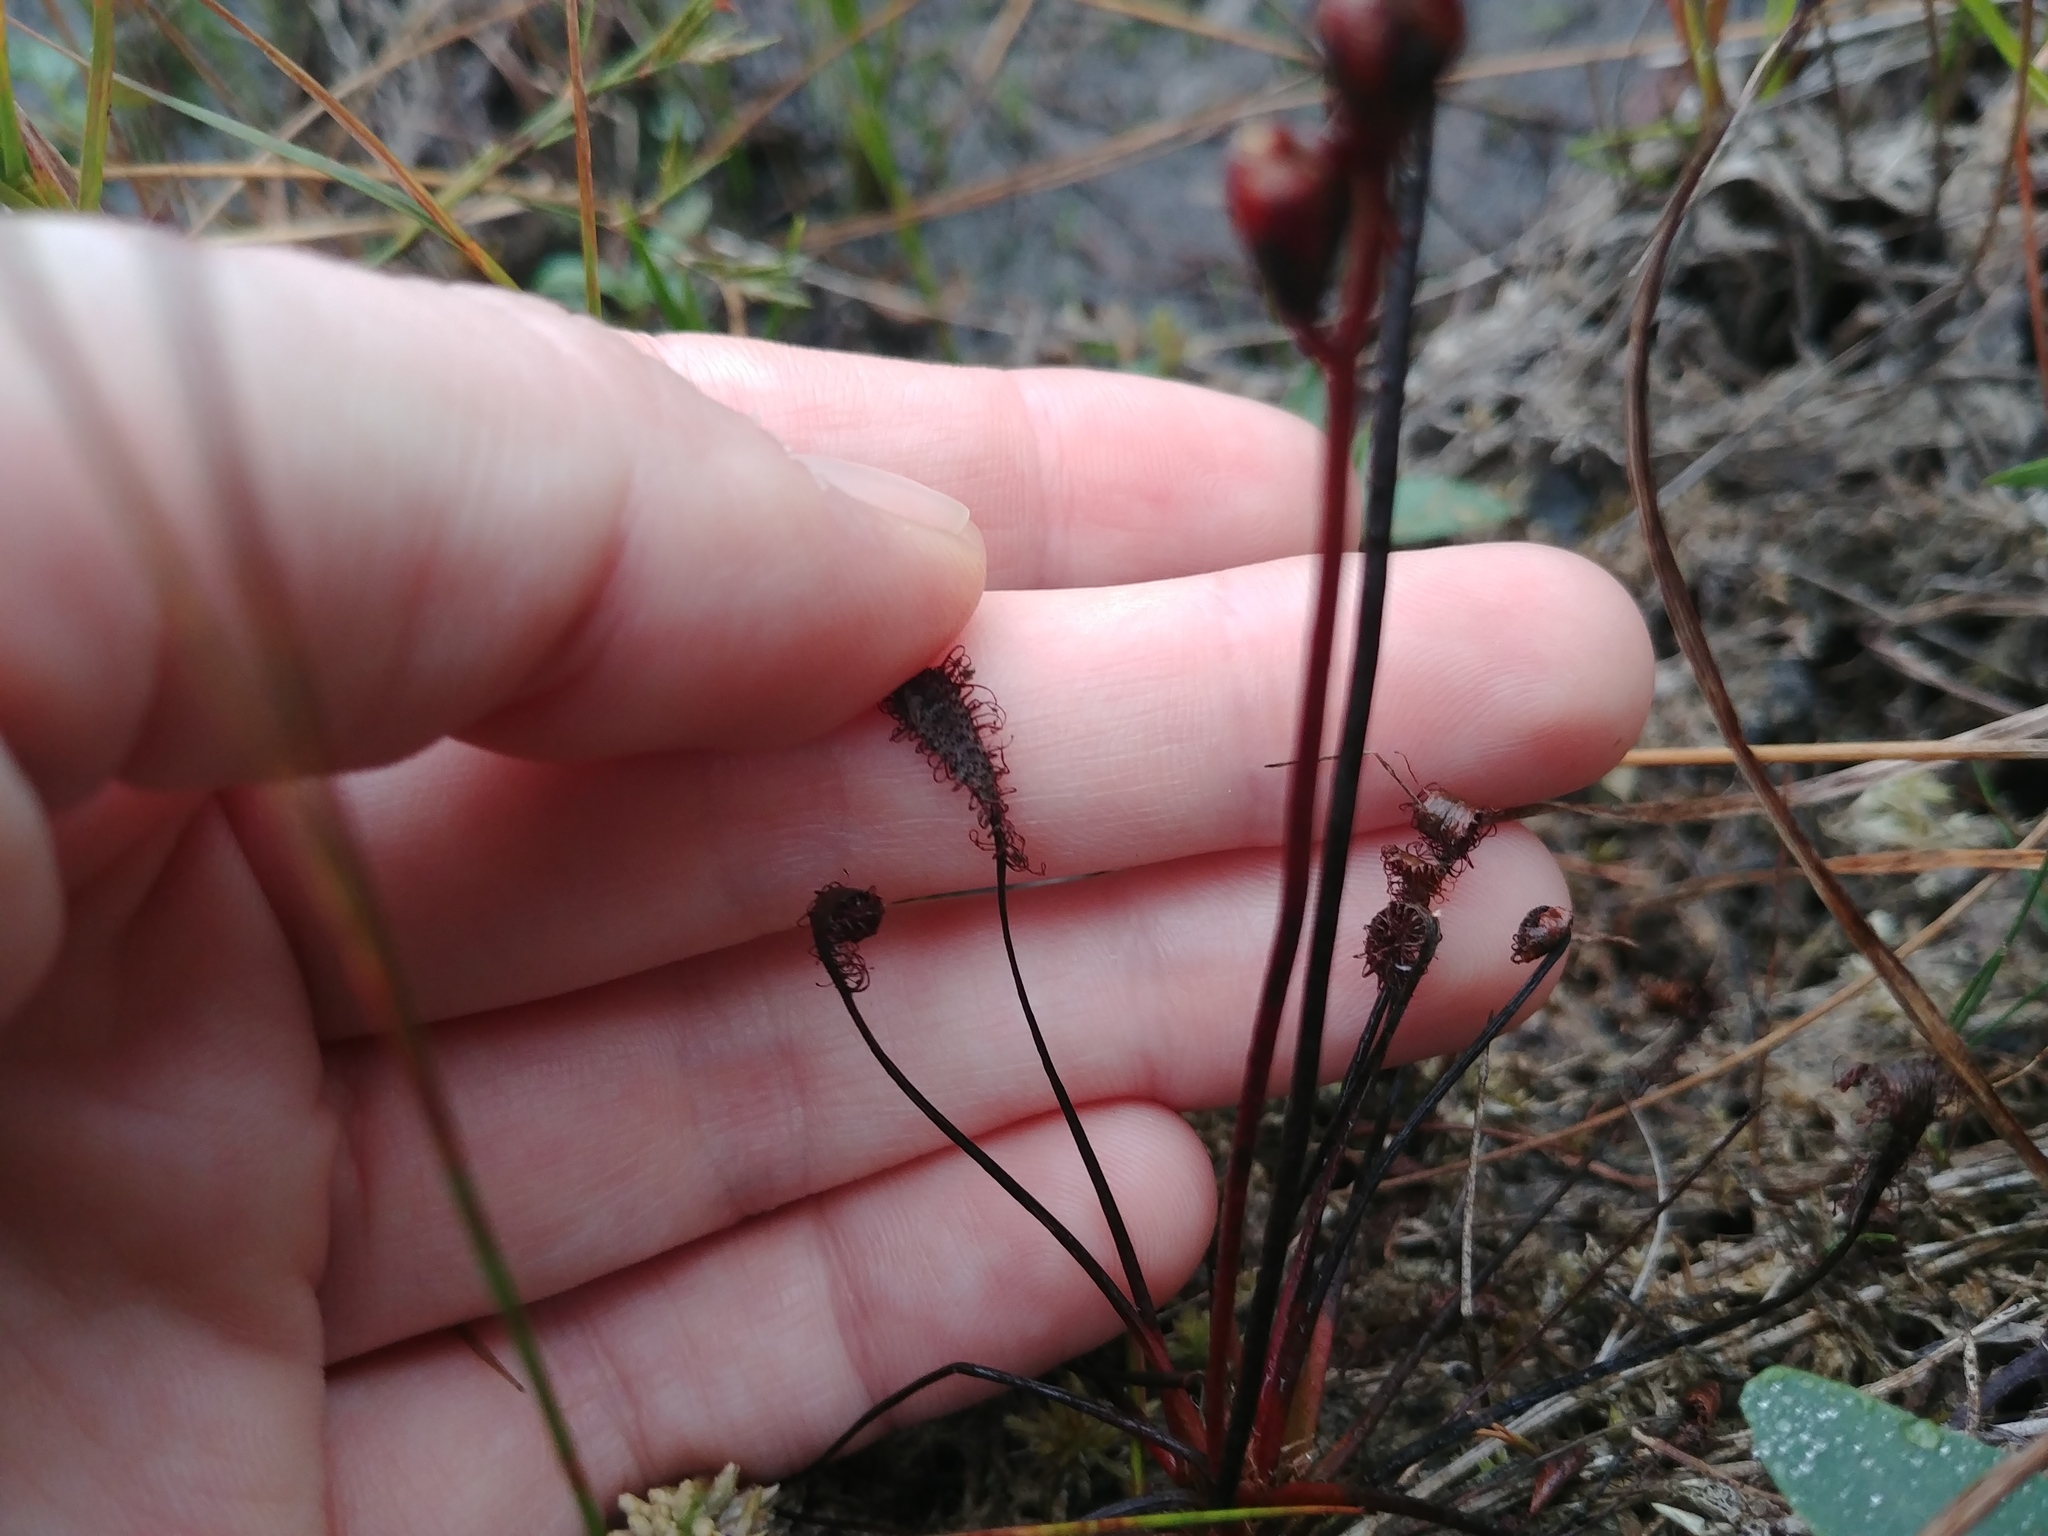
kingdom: Plantae
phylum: Tracheophyta
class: Magnoliopsida
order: Caryophyllales
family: Droseraceae
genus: Drosera
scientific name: Drosera intermedia
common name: Oblong-leaved sundew
